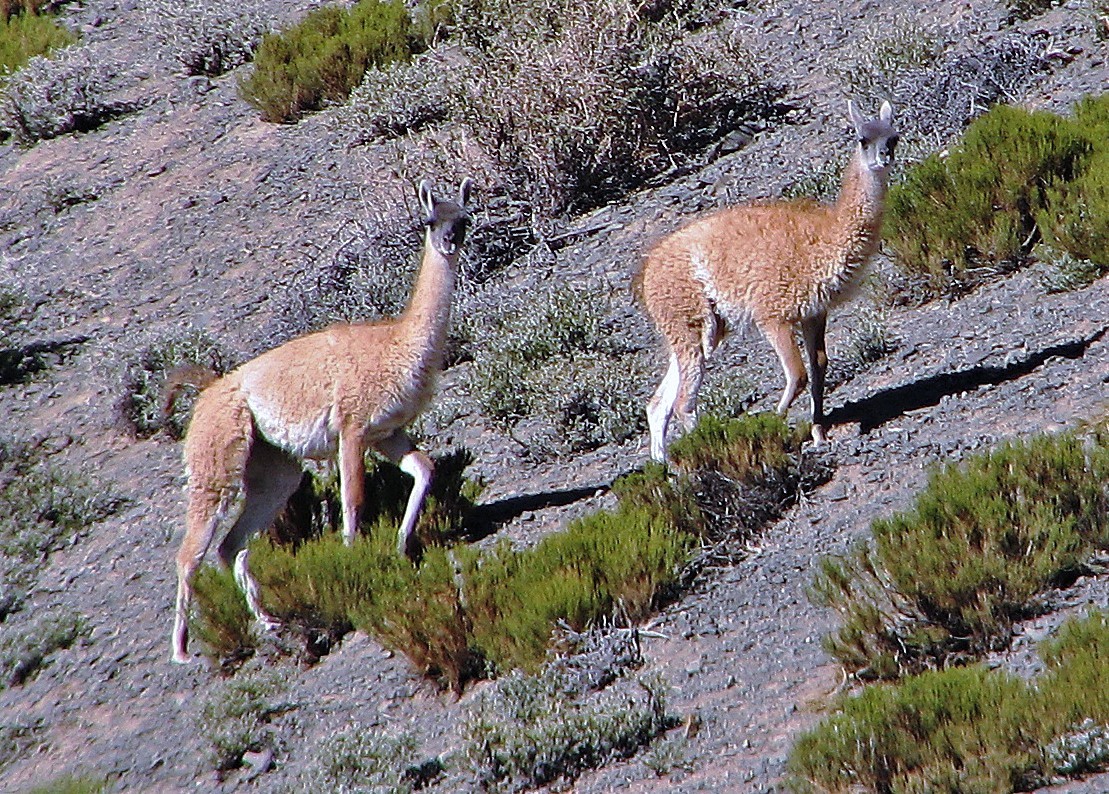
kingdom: Animalia
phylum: Chordata
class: Mammalia
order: Artiodactyla
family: Camelidae
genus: Lama
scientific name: Lama glama
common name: Llama
